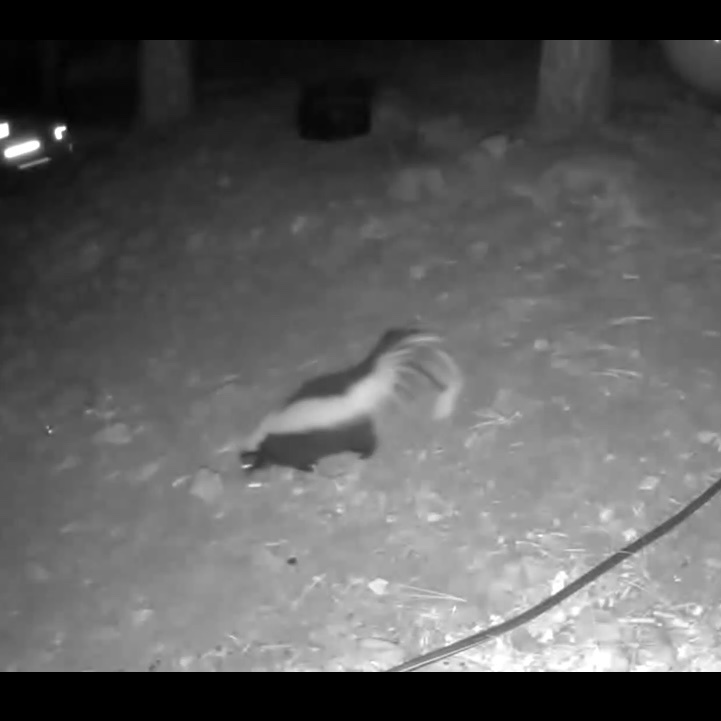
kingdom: Animalia
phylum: Chordata
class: Mammalia
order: Carnivora
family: Mephitidae
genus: Mephitis
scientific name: Mephitis mephitis
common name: Striped skunk
